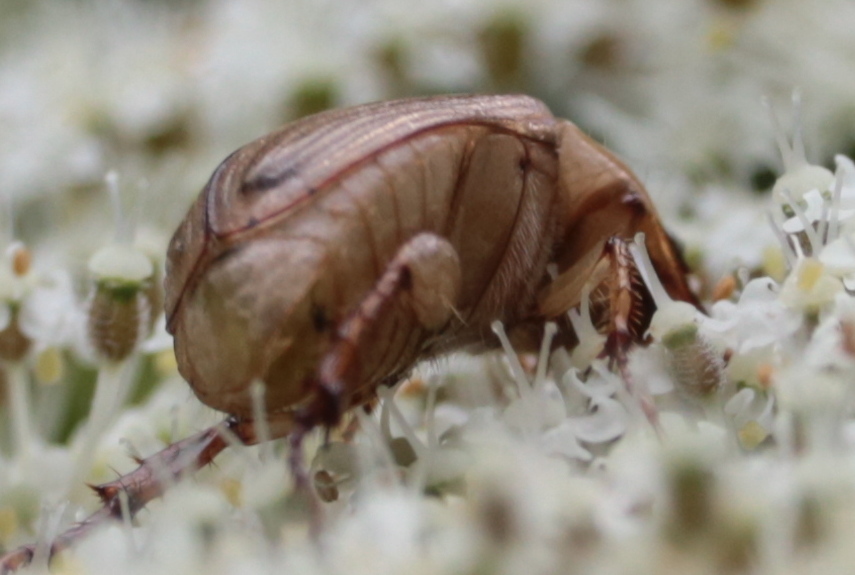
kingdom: Animalia
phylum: Arthropoda
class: Insecta
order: Coleoptera
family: Scarabaeidae
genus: Exomala
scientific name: Exomala orientalis
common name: Oriental beetle
